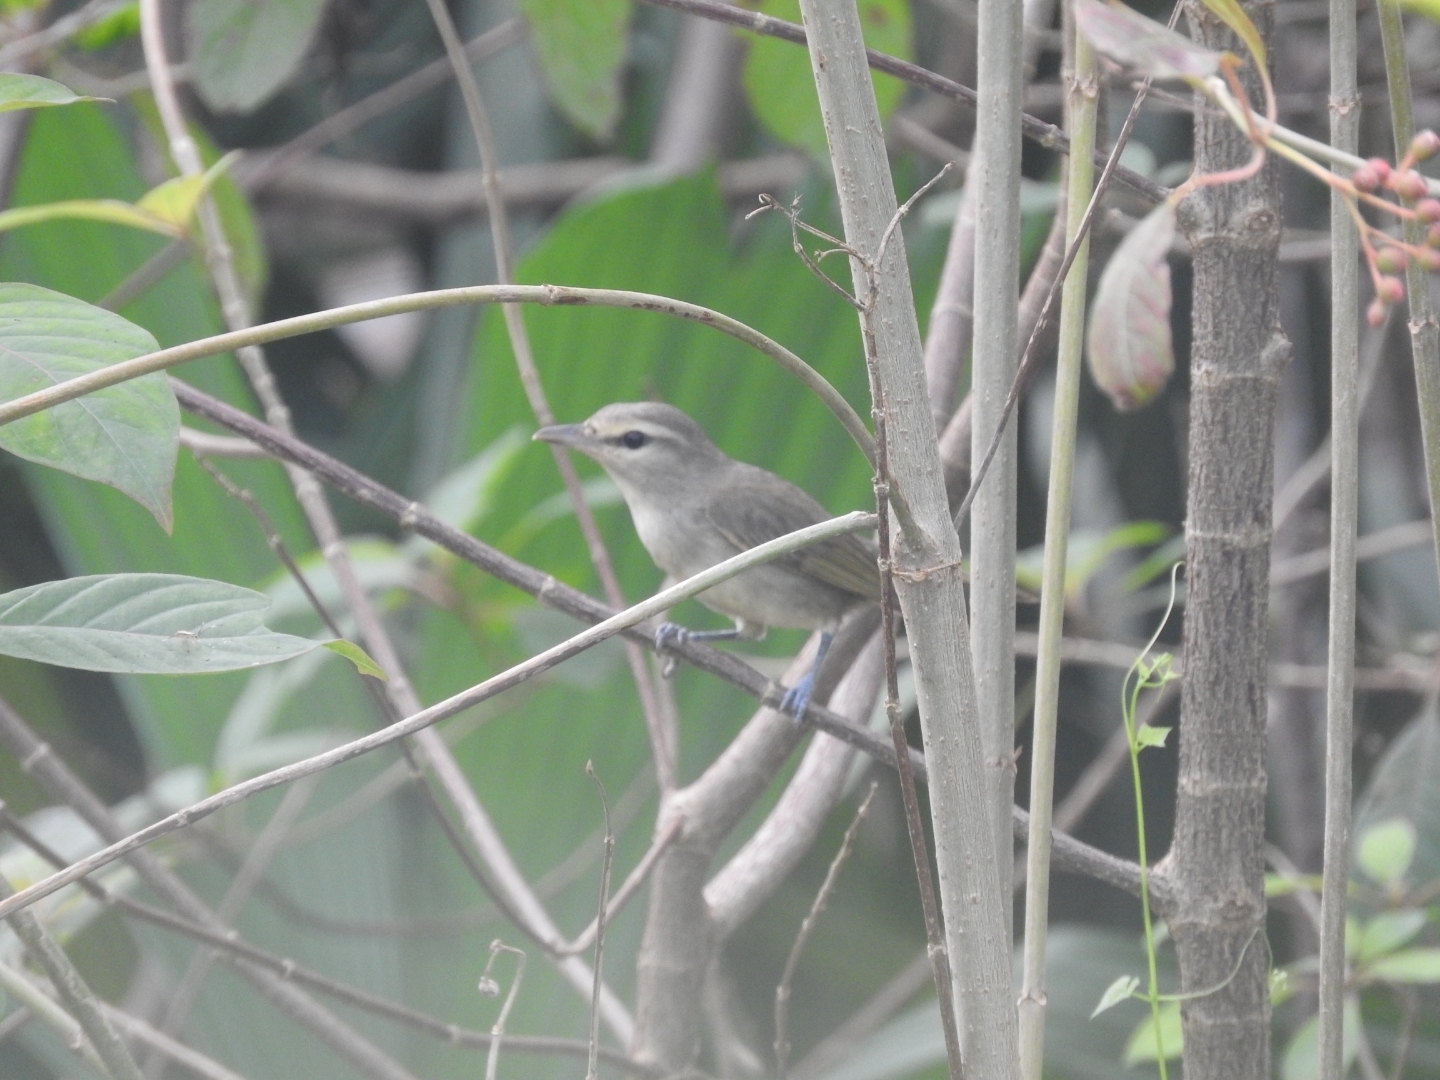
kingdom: Animalia
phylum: Chordata
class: Aves
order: Passeriformes
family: Vireonidae
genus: Vireo
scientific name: Vireo magister
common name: Yucatan vireo
